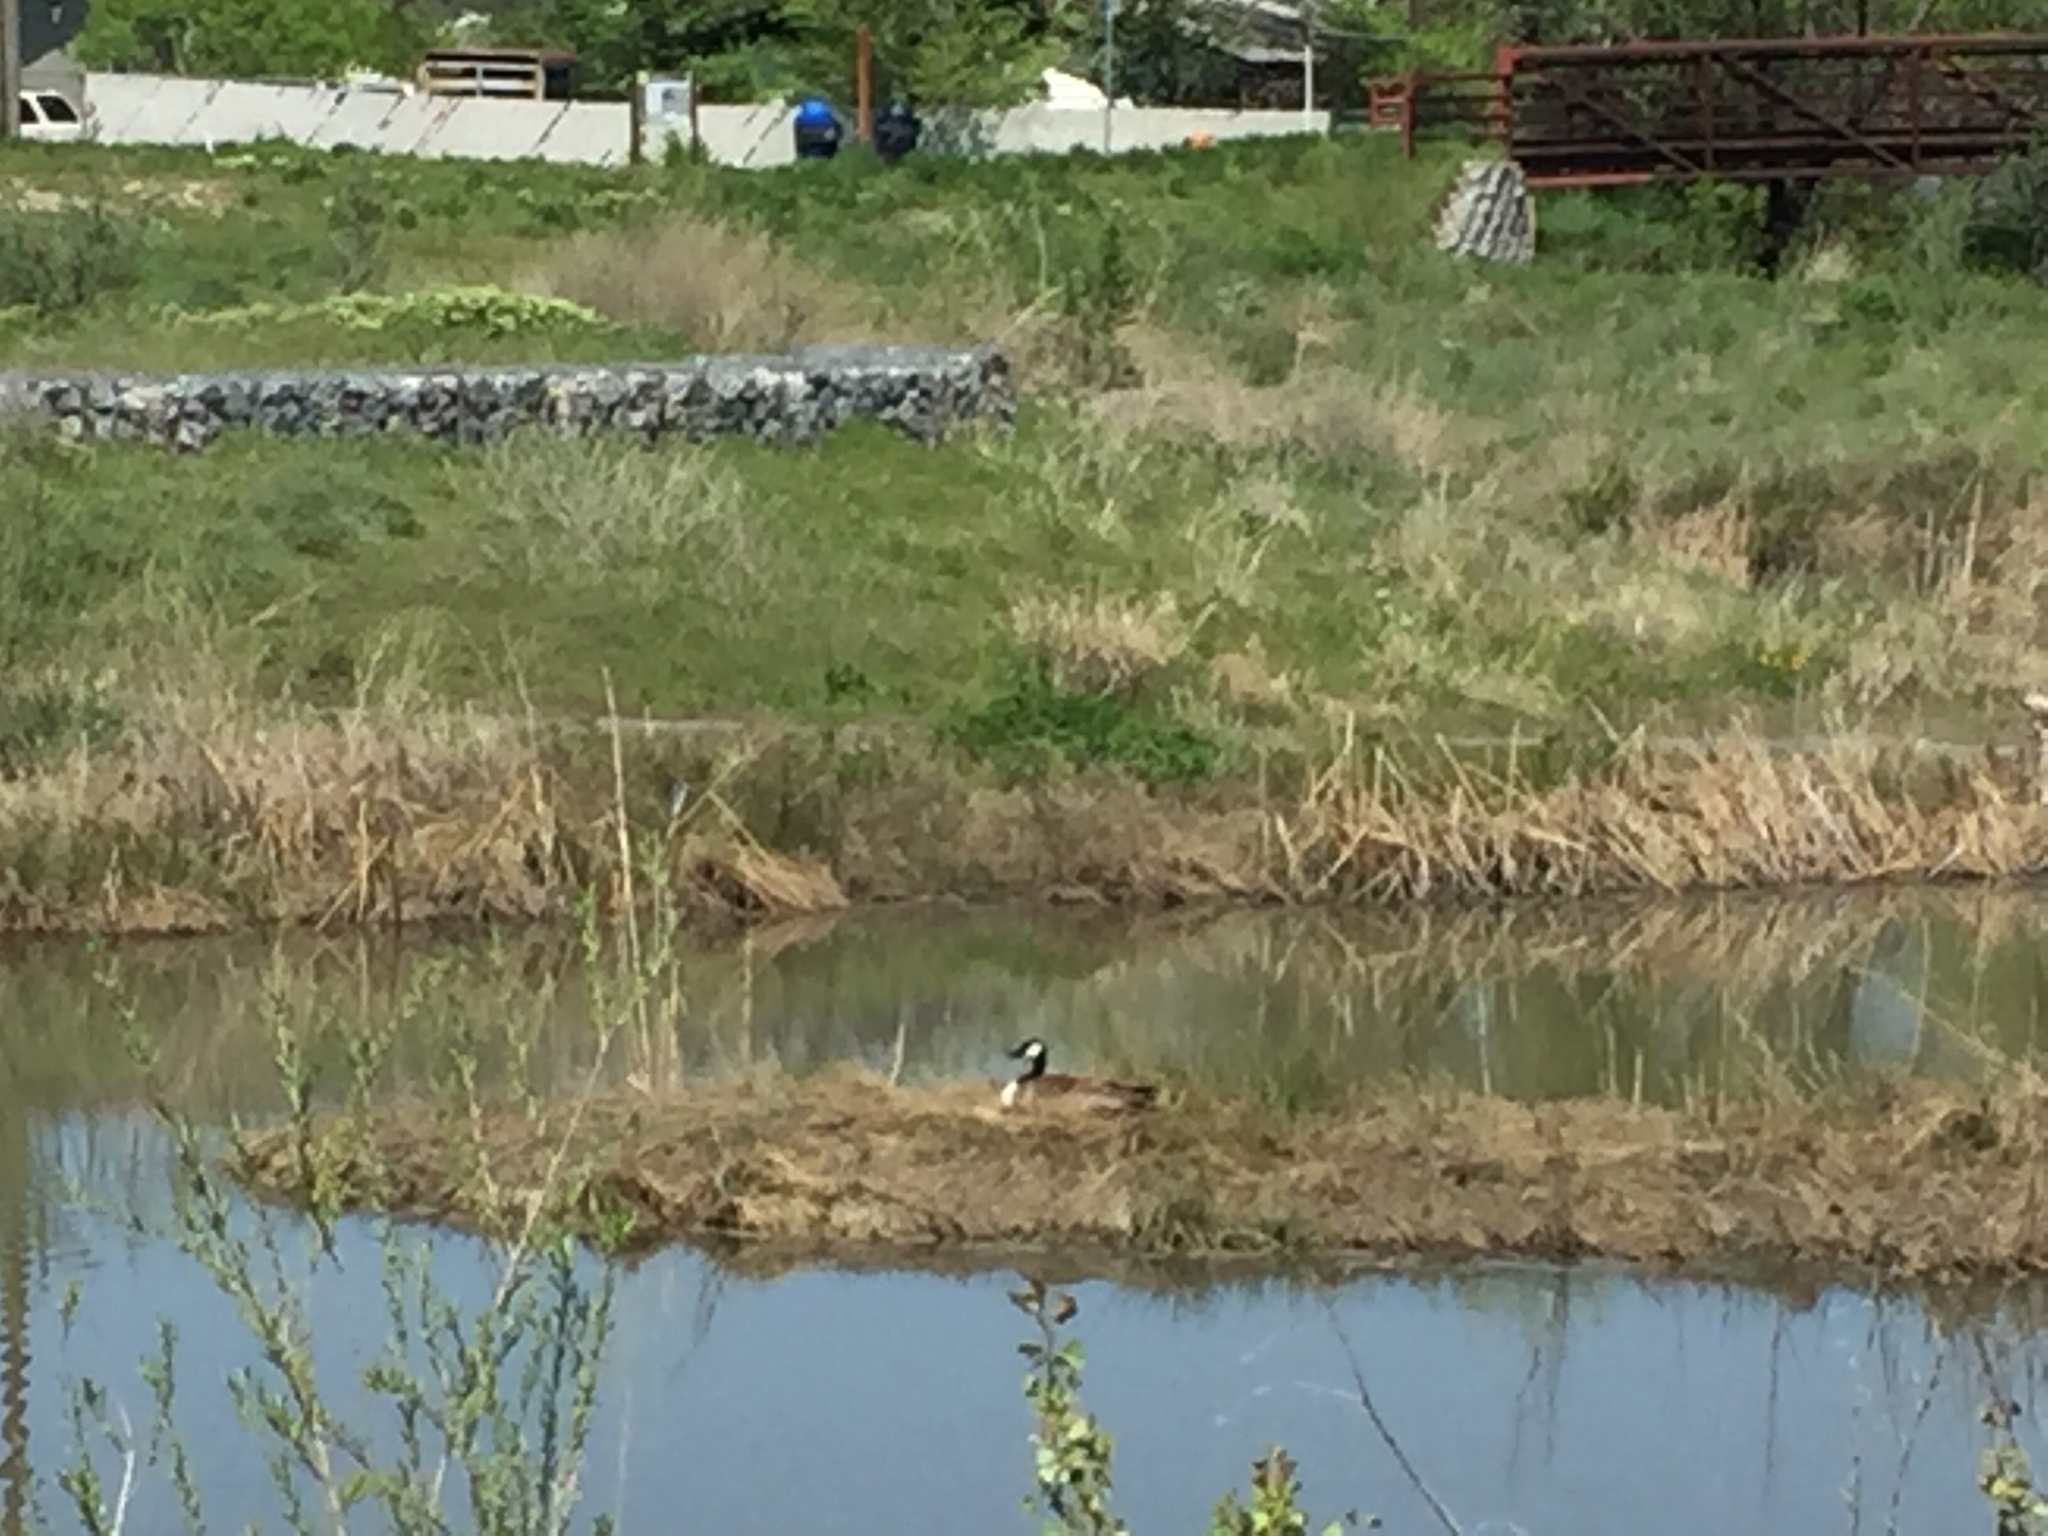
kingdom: Animalia
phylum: Chordata
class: Aves
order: Anseriformes
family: Anatidae
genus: Branta
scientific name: Branta canadensis
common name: Canada goose
